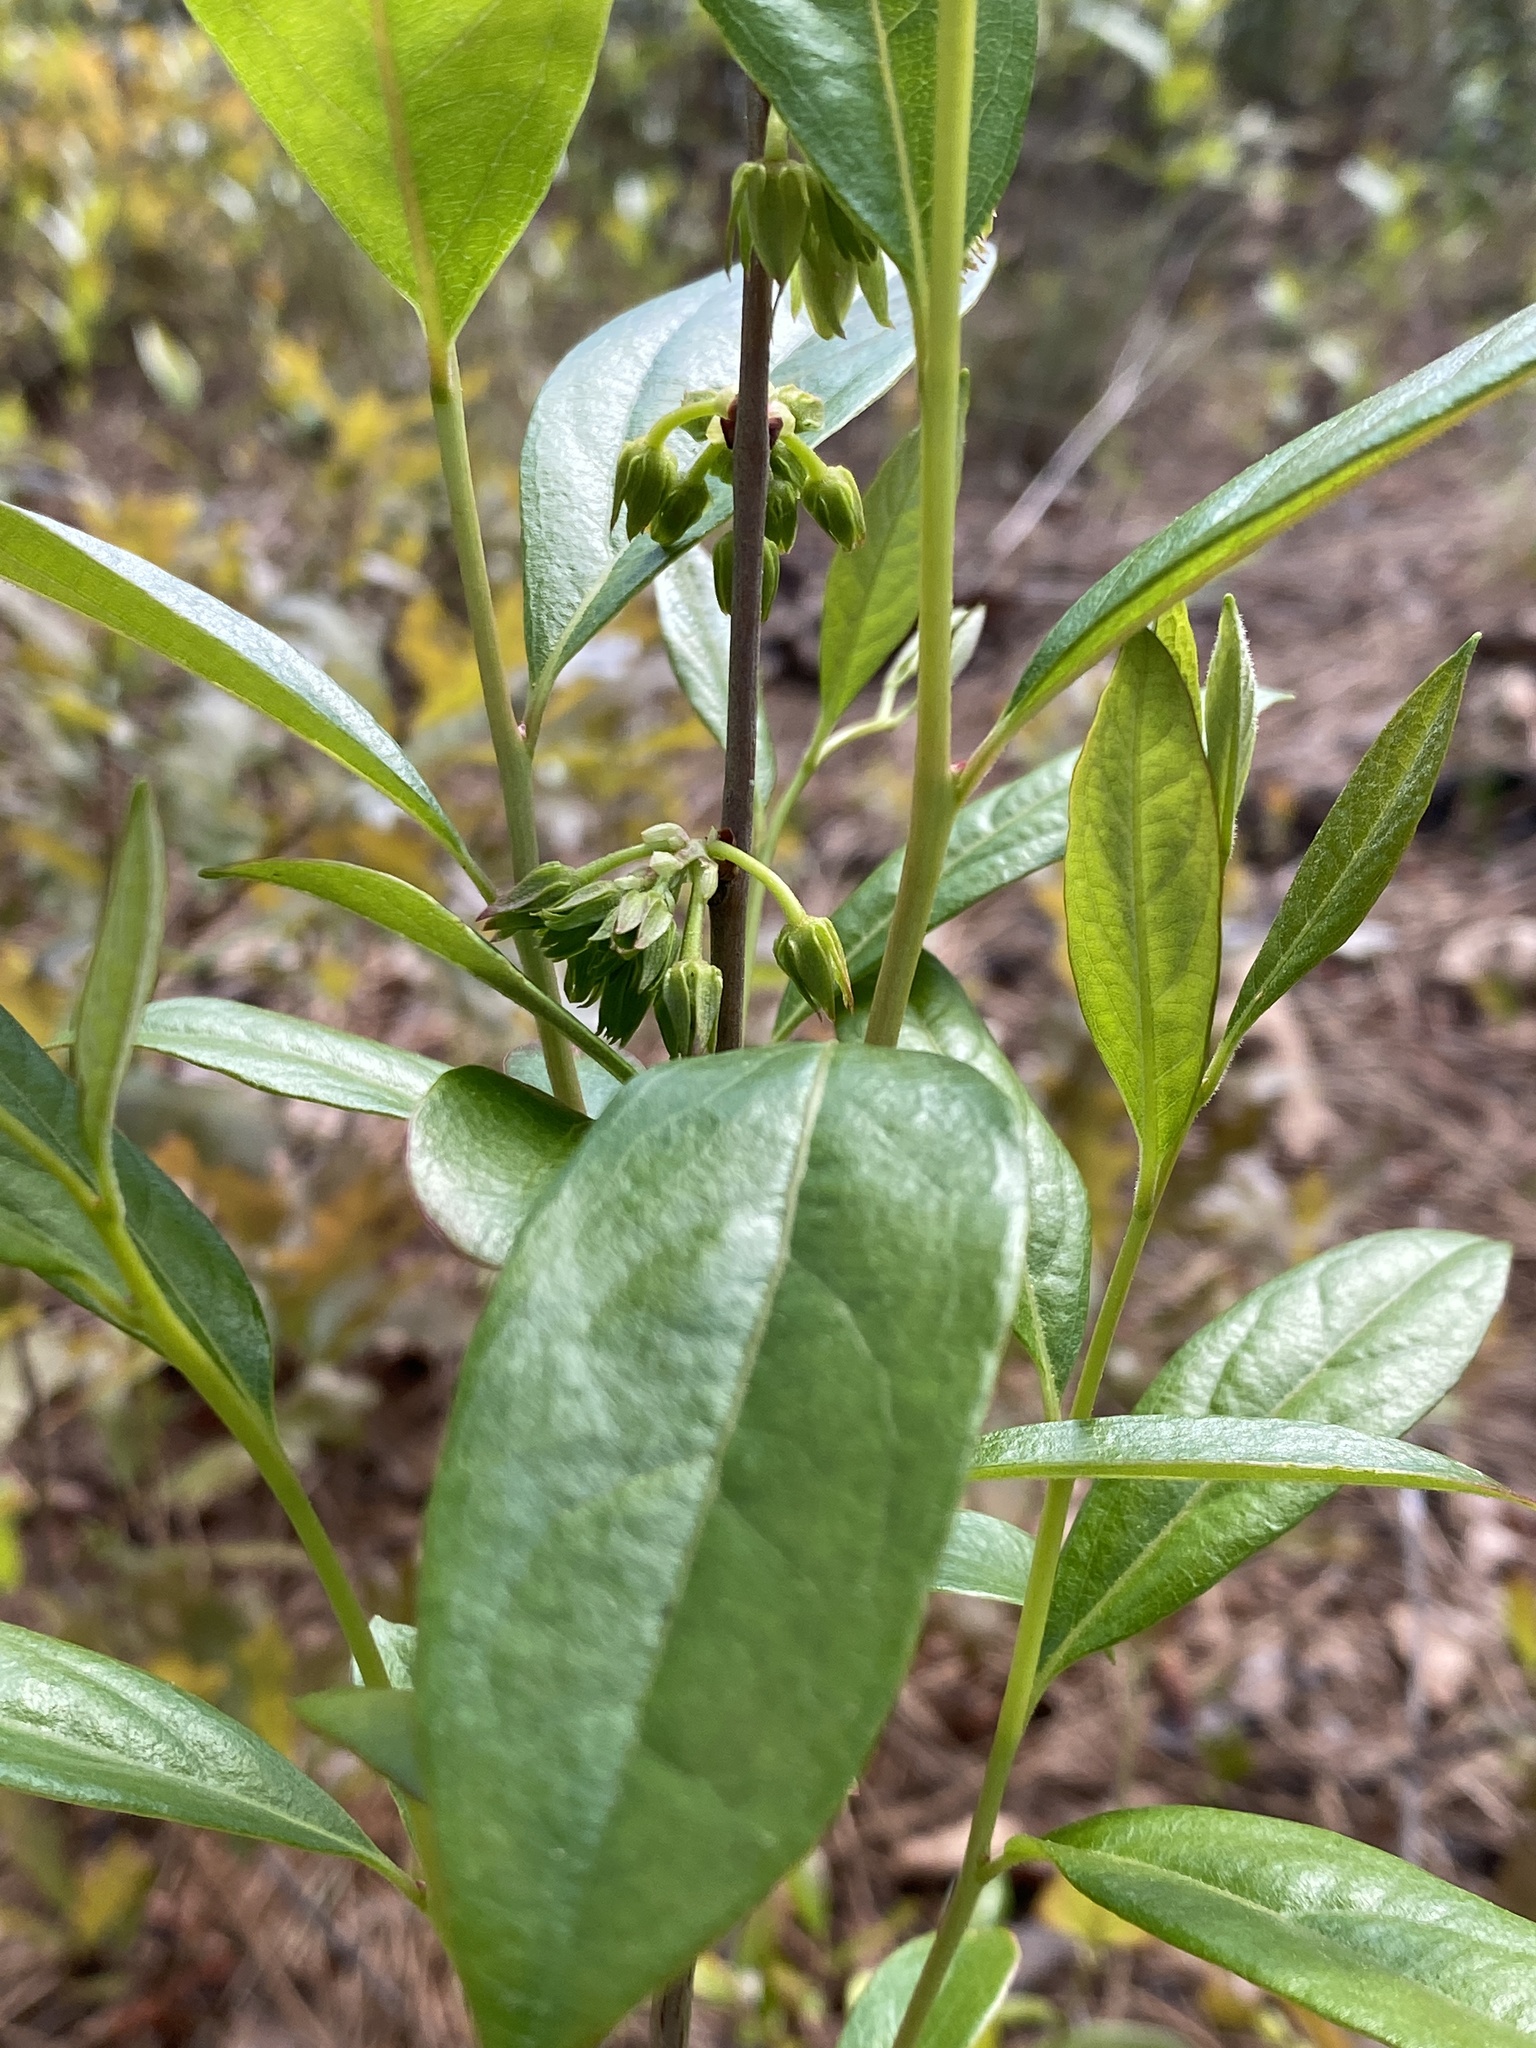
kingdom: Plantae
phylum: Tracheophyta
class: Magnoliopsida
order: Ericales
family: Ericaceae
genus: Lyonia
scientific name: Lyonia mariana
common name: Staggerbush
